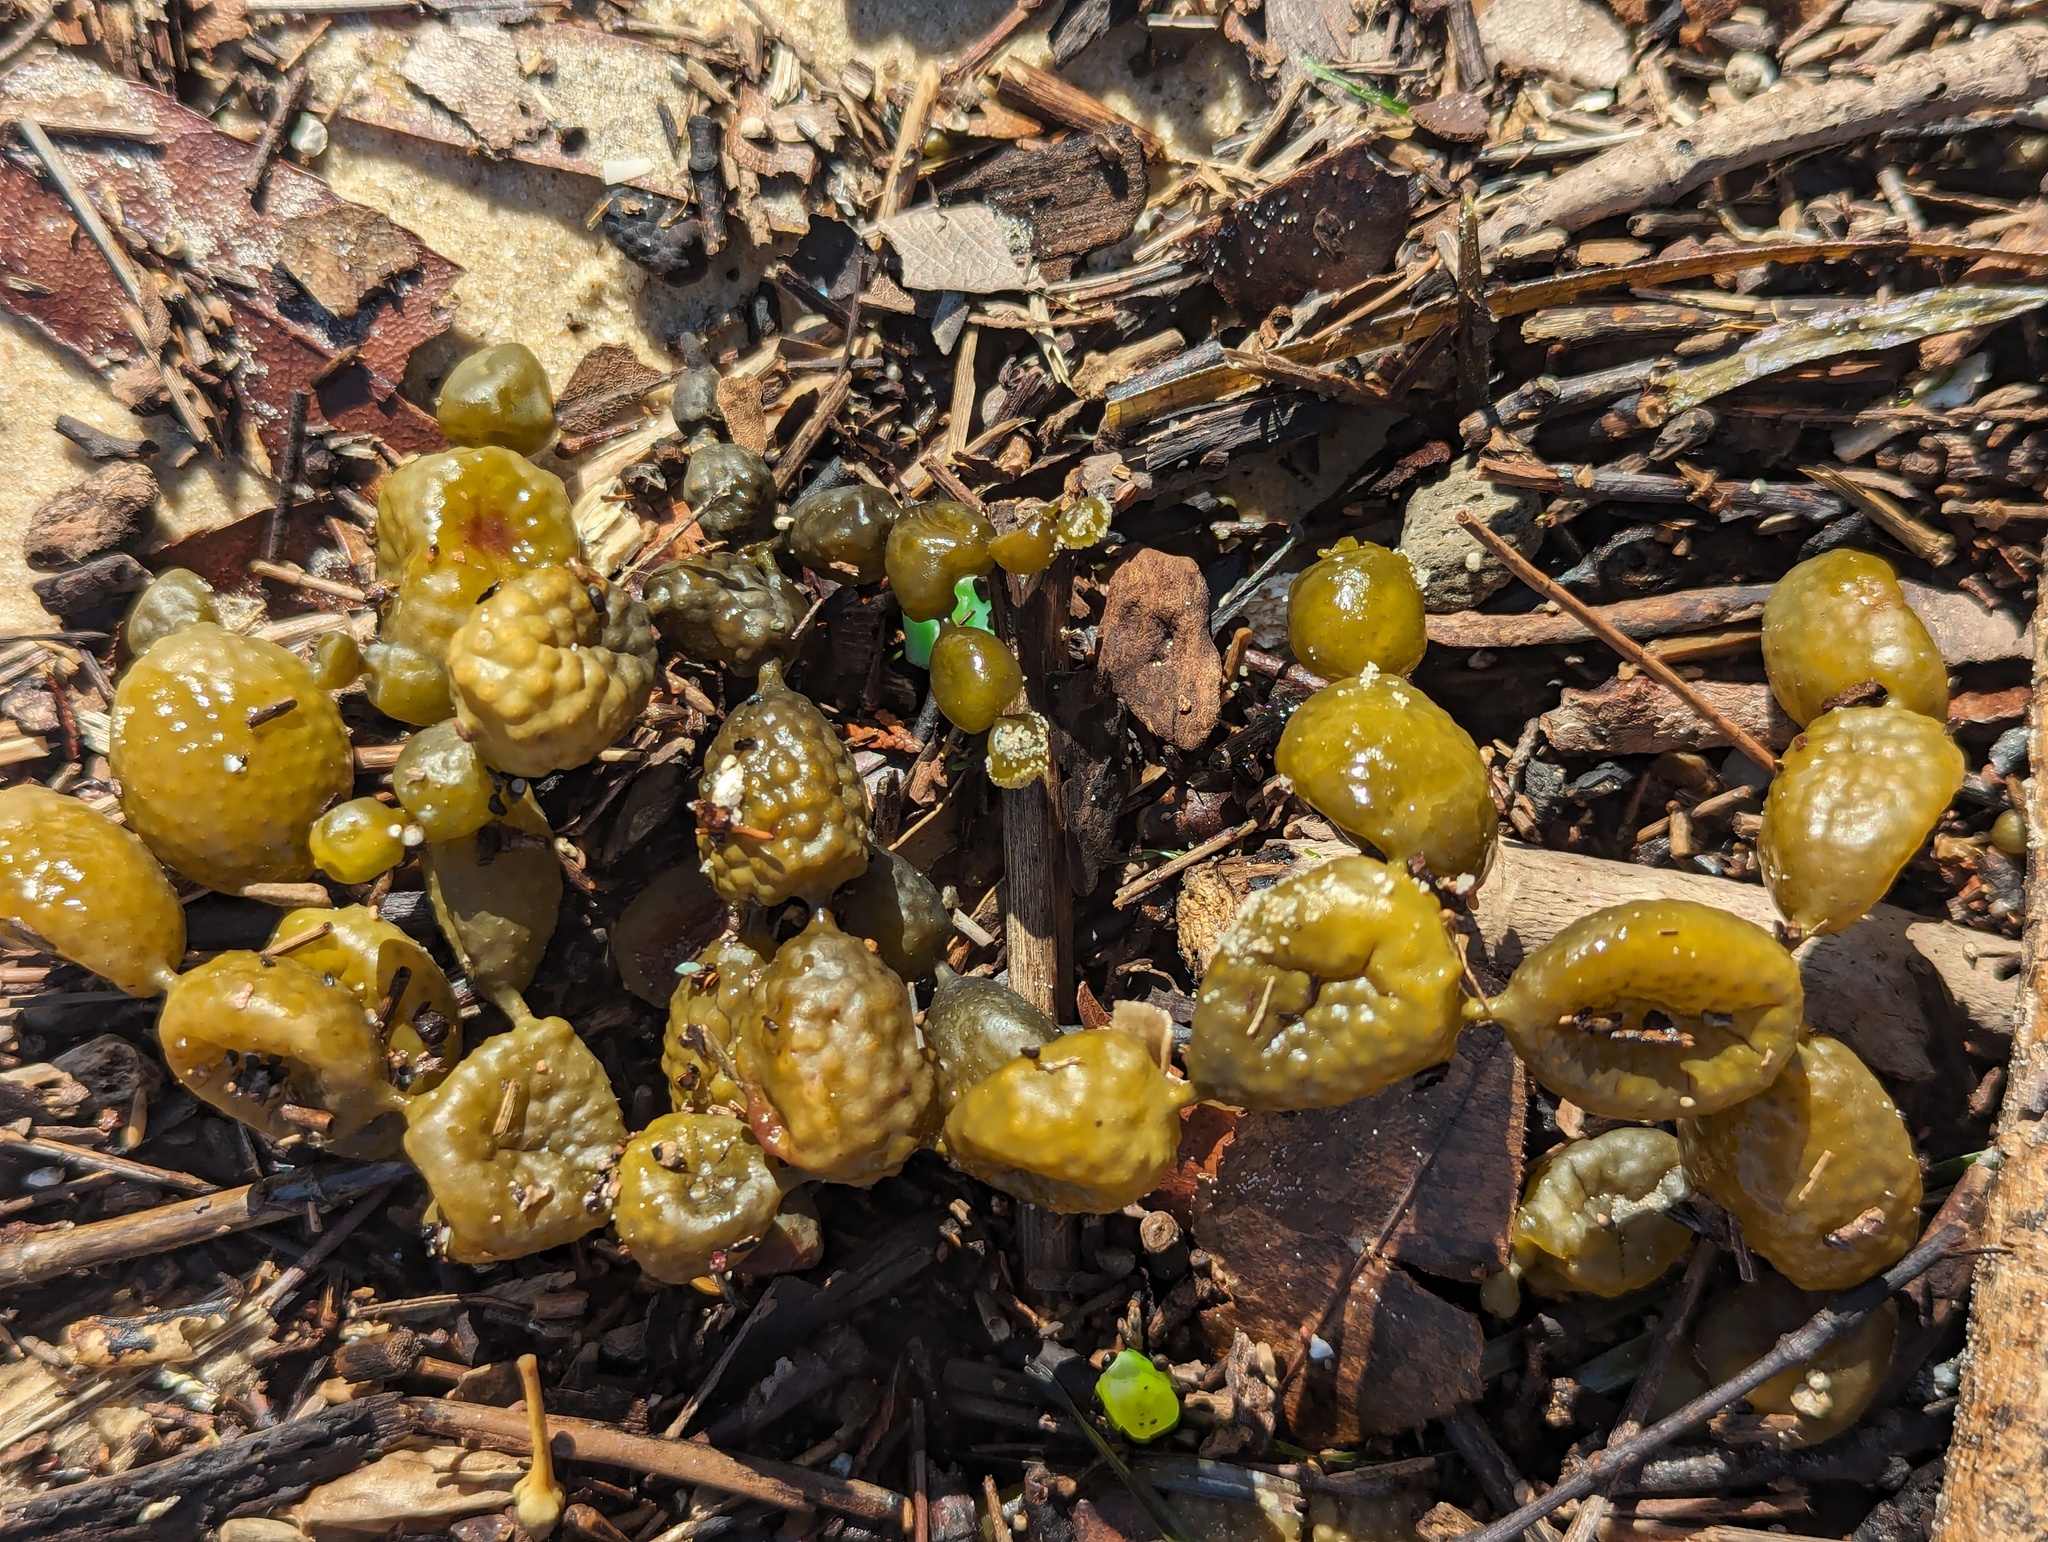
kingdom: Chromista
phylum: Ochrophyta
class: Phaeophyceae
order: Fucales
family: Hormosiraceae
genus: Hormosira
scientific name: Hormosira banksii
